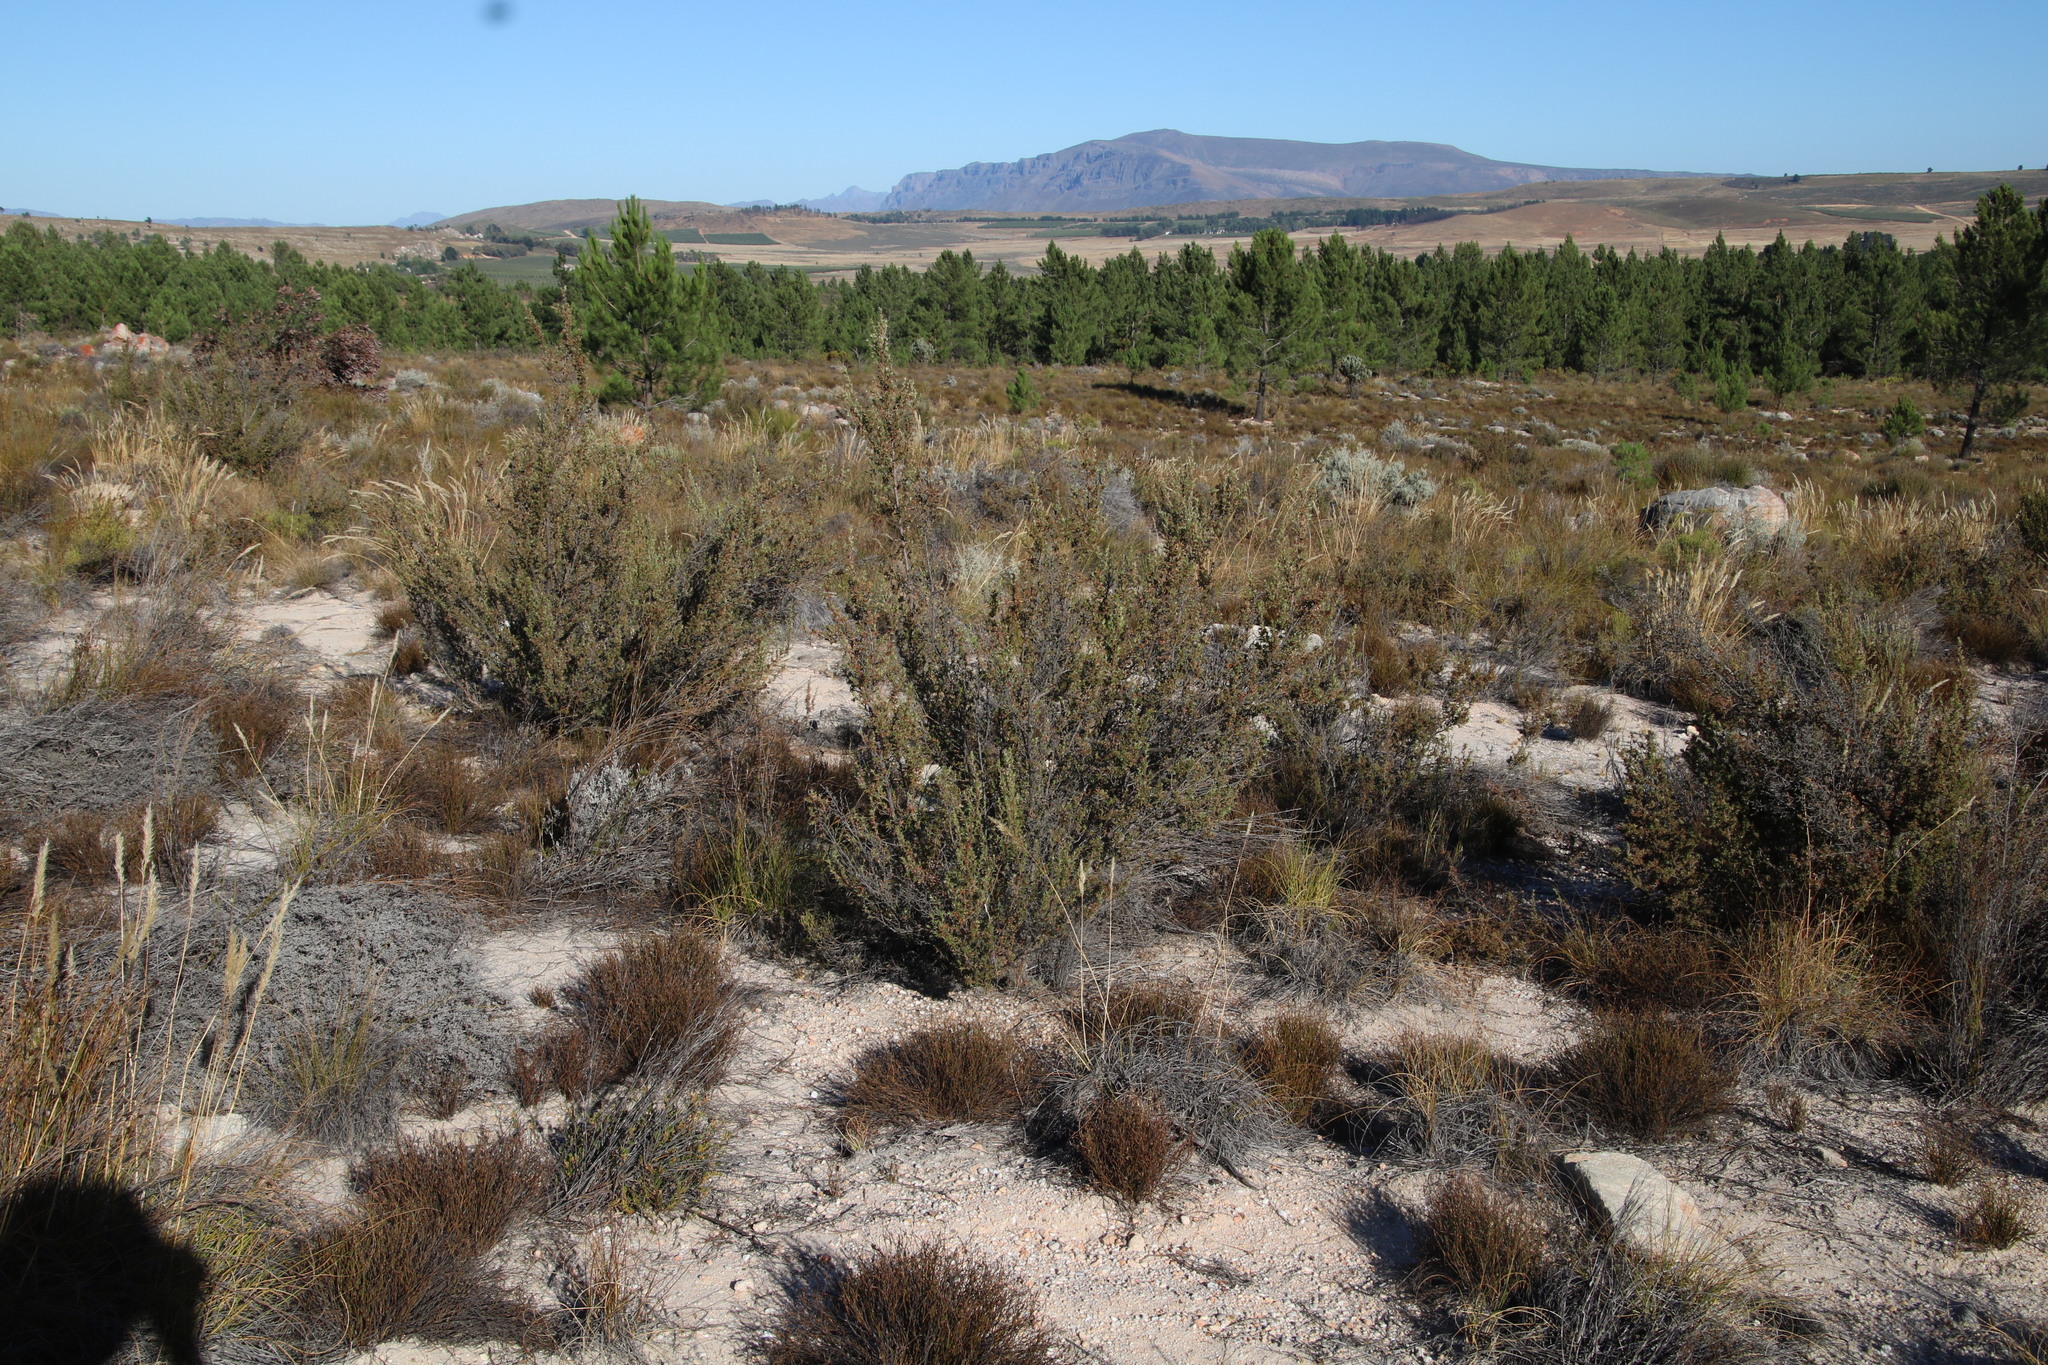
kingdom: Plantae
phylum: Tracheophyta
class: Magnoliopsida
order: Rosales
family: Rosaceae
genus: Cliffortia
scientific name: Cliffortia ruscifolia
